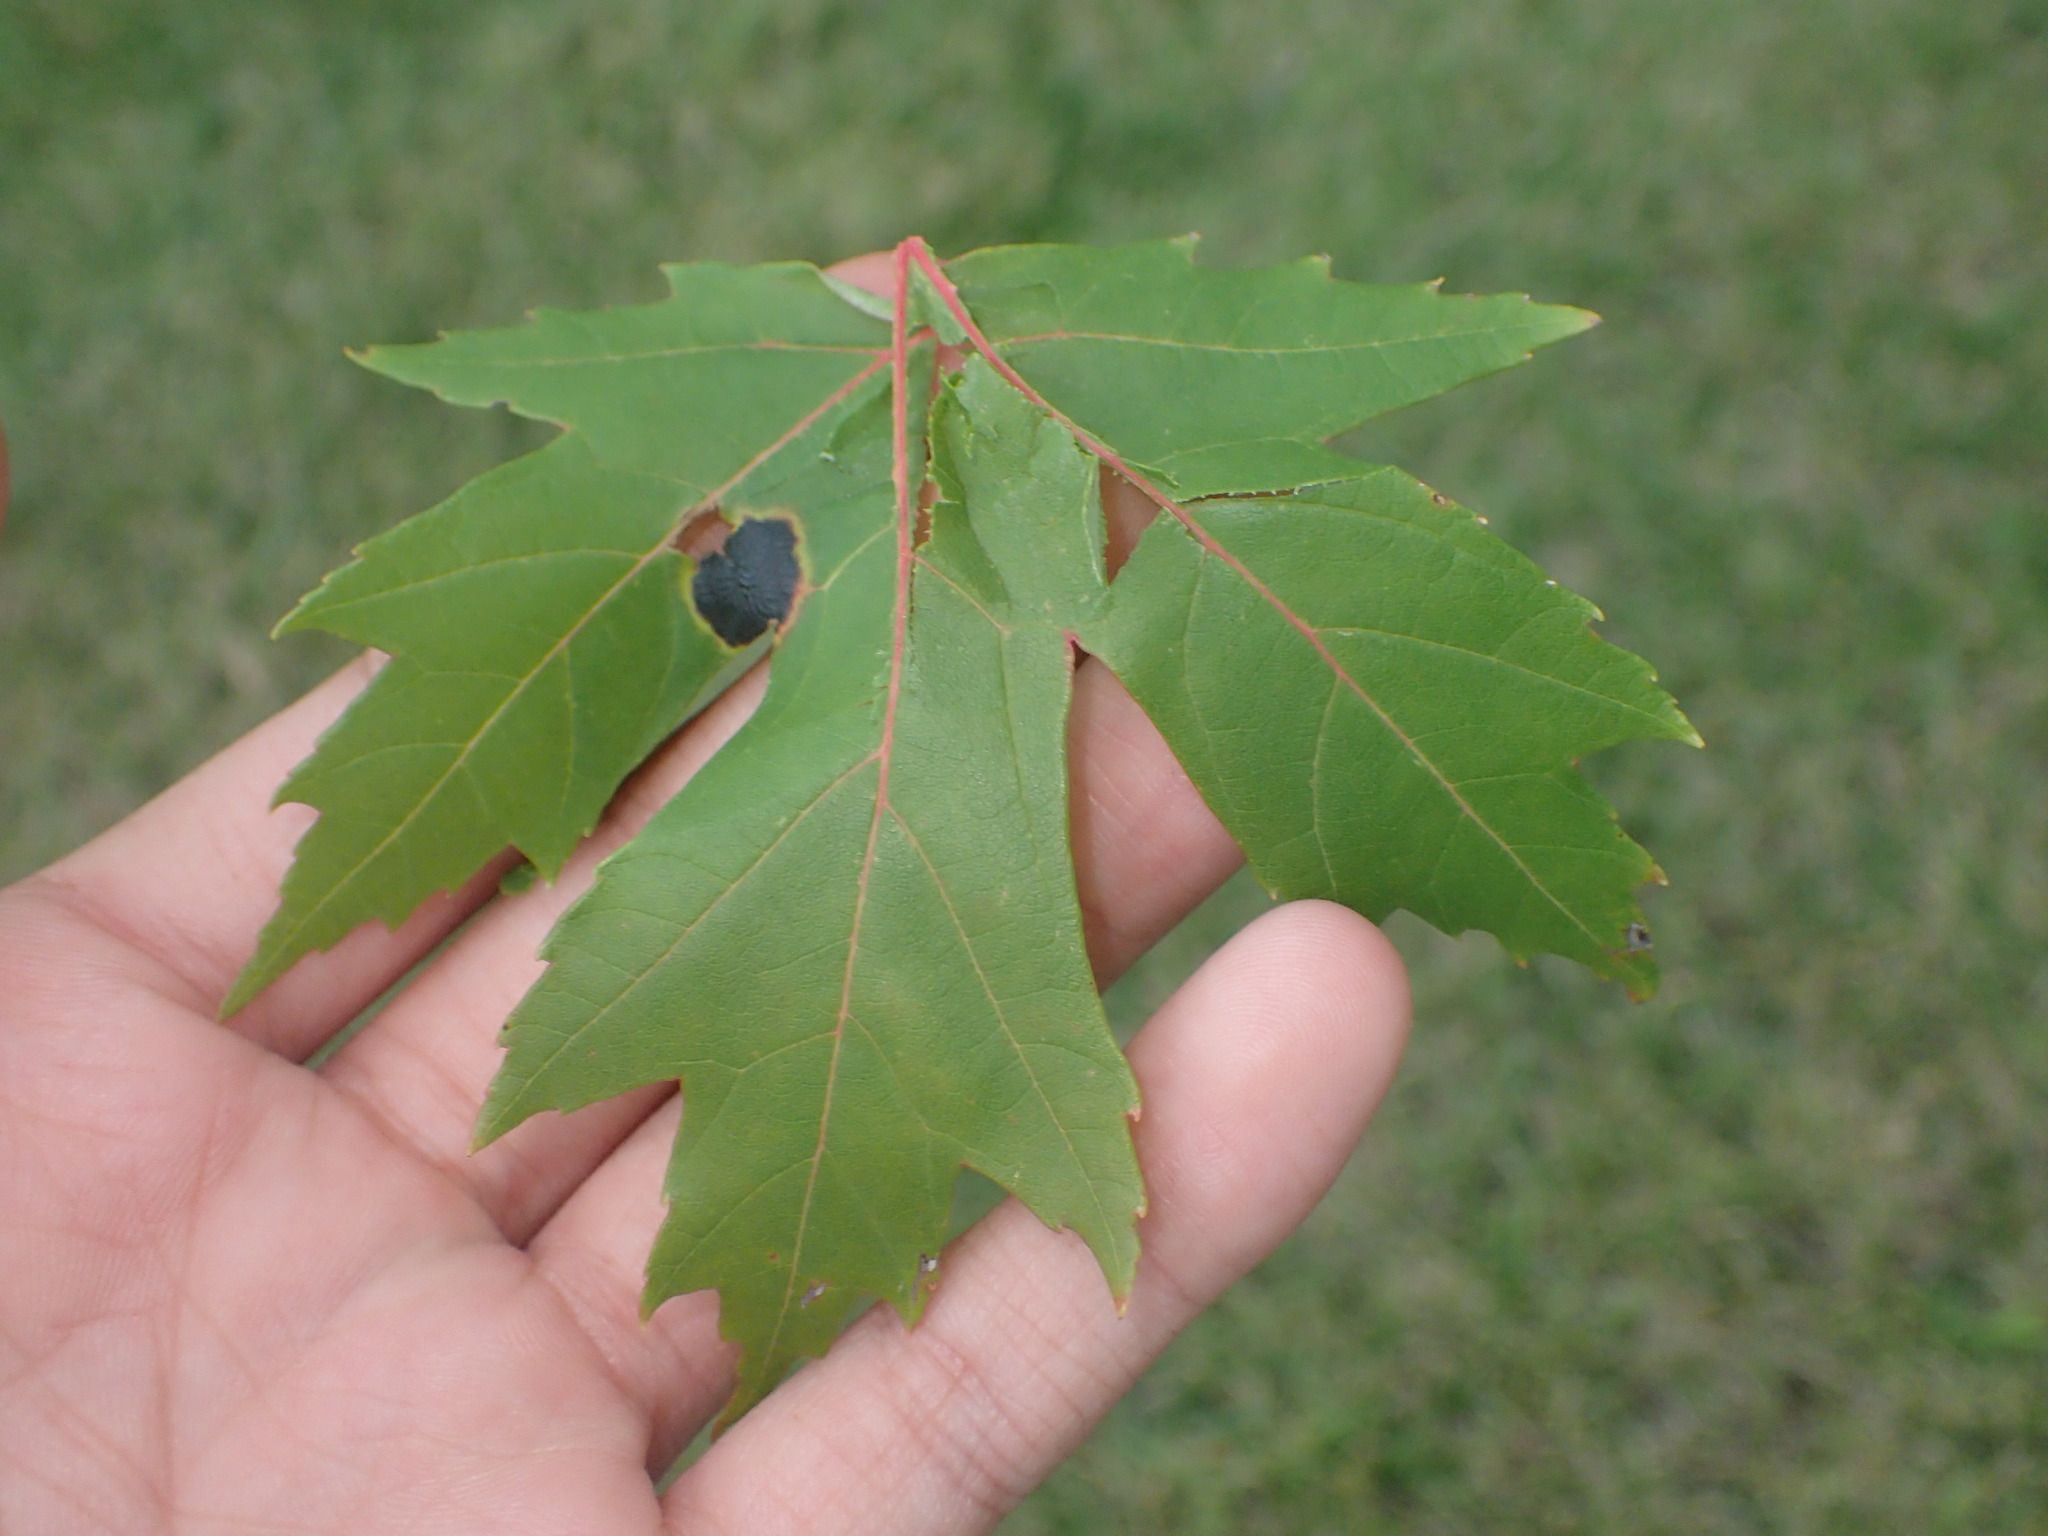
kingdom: Fungi
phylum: Ascomycota
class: Leotiomycetes
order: Rhytismatales
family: Rhytismataceae
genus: Rhytisma
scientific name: Rhytisma americanum
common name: American tar spot
